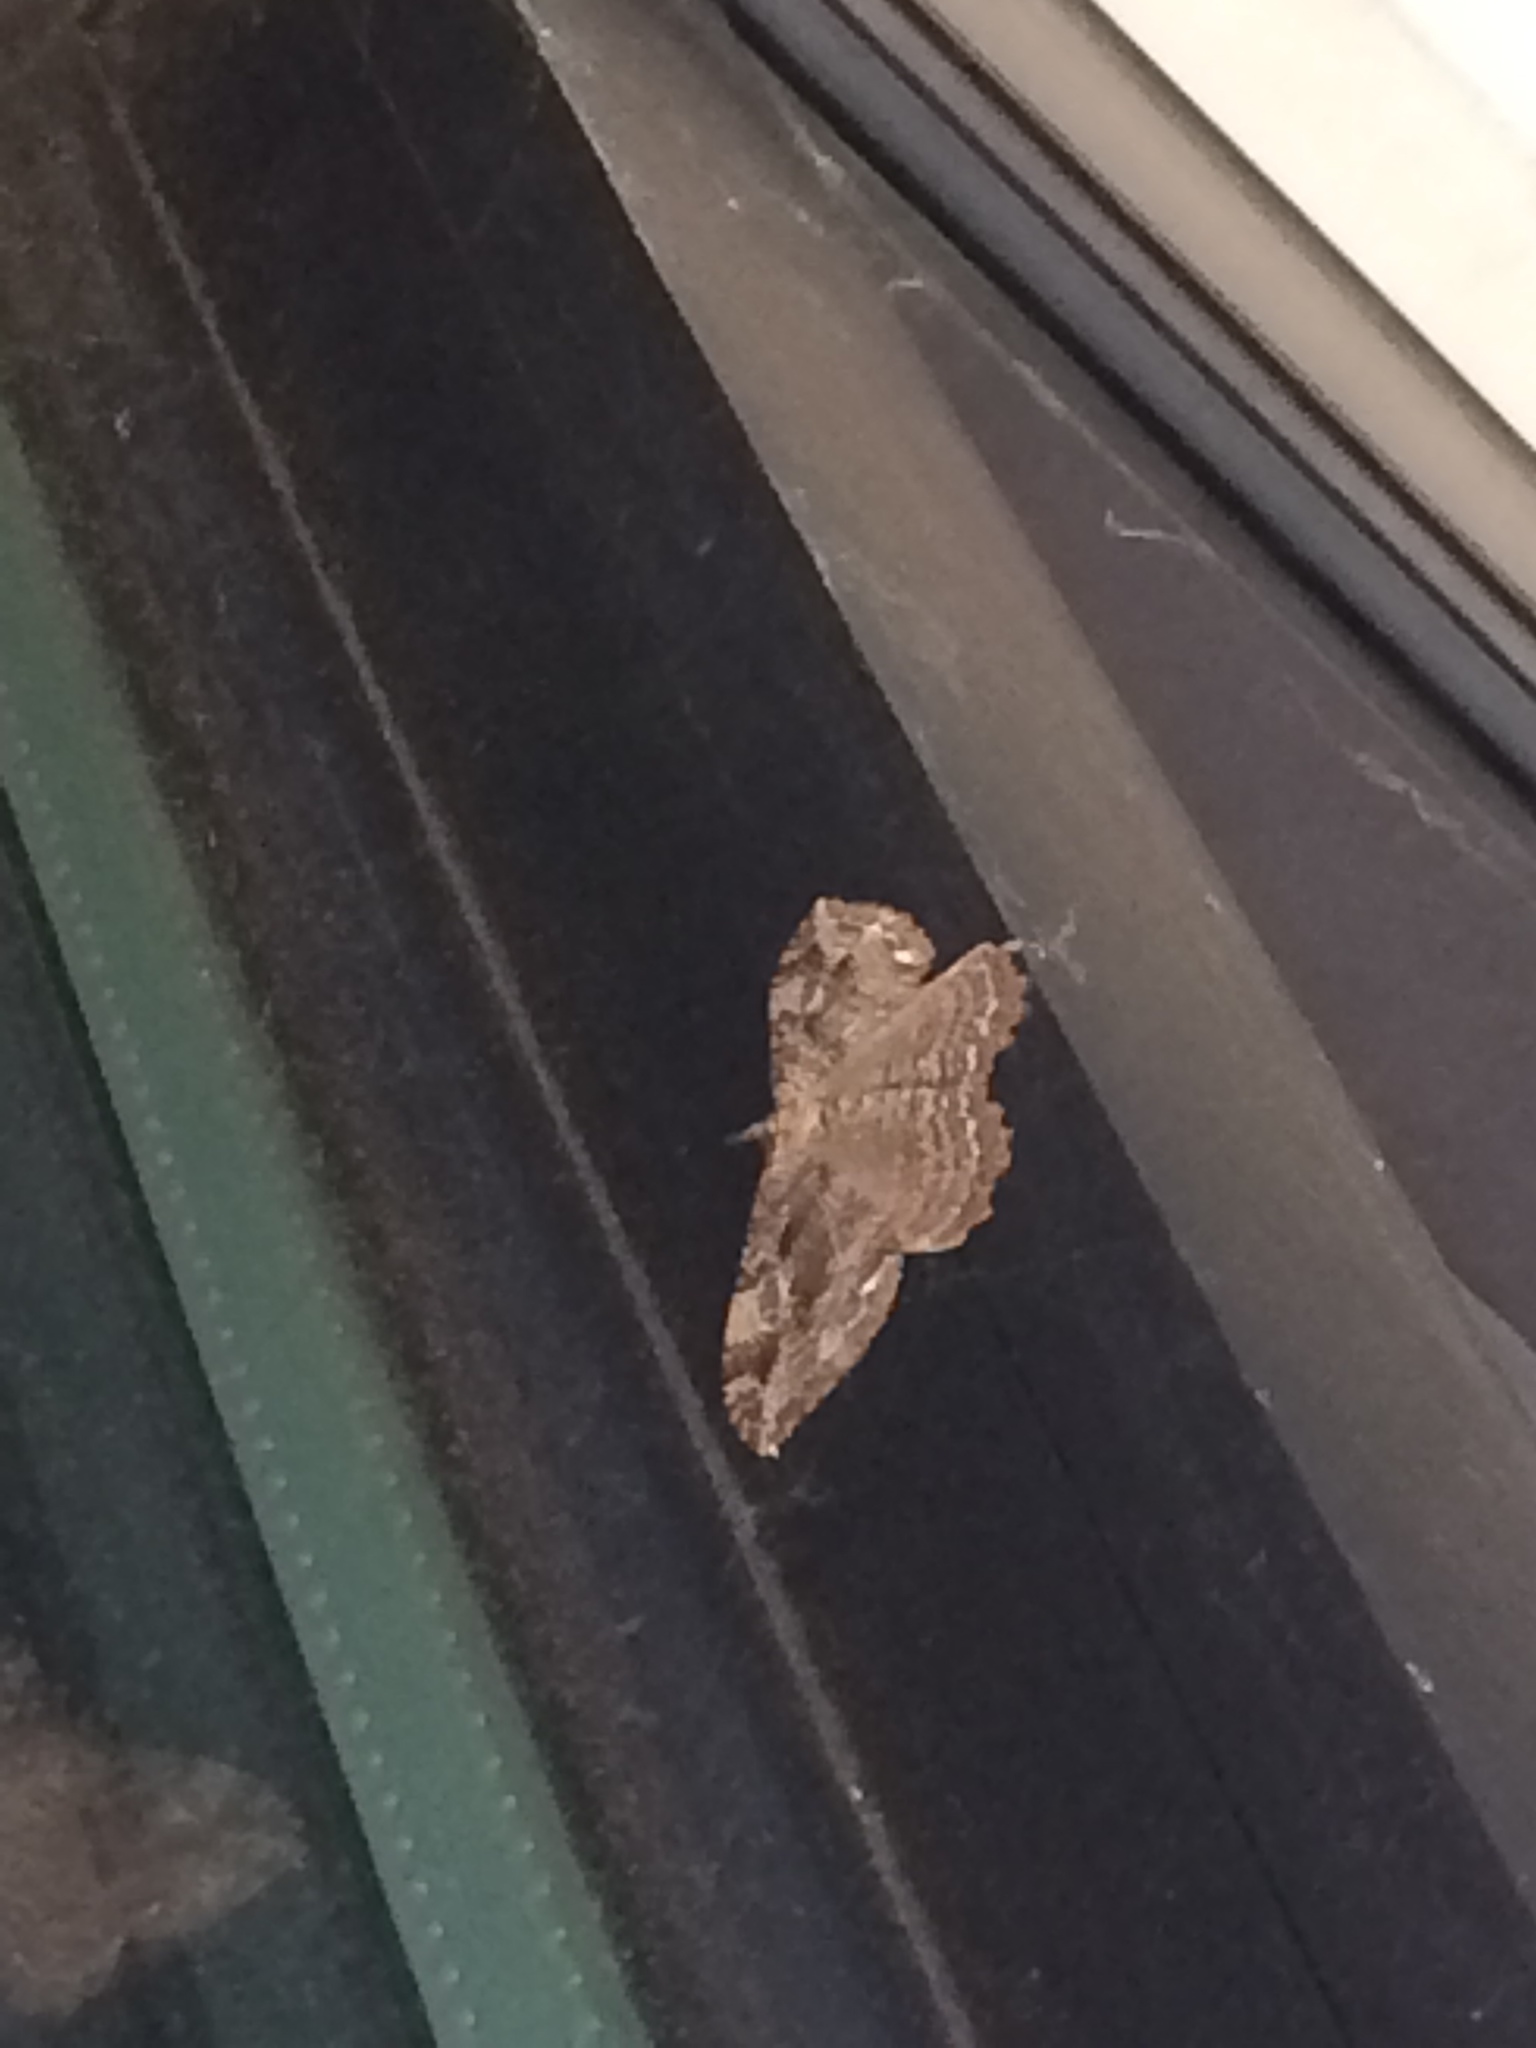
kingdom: Animalia
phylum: Arthropoda
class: Insecta
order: Lepidoptera
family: Geometridae
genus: Rheumaptera
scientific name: Rheumaptera
